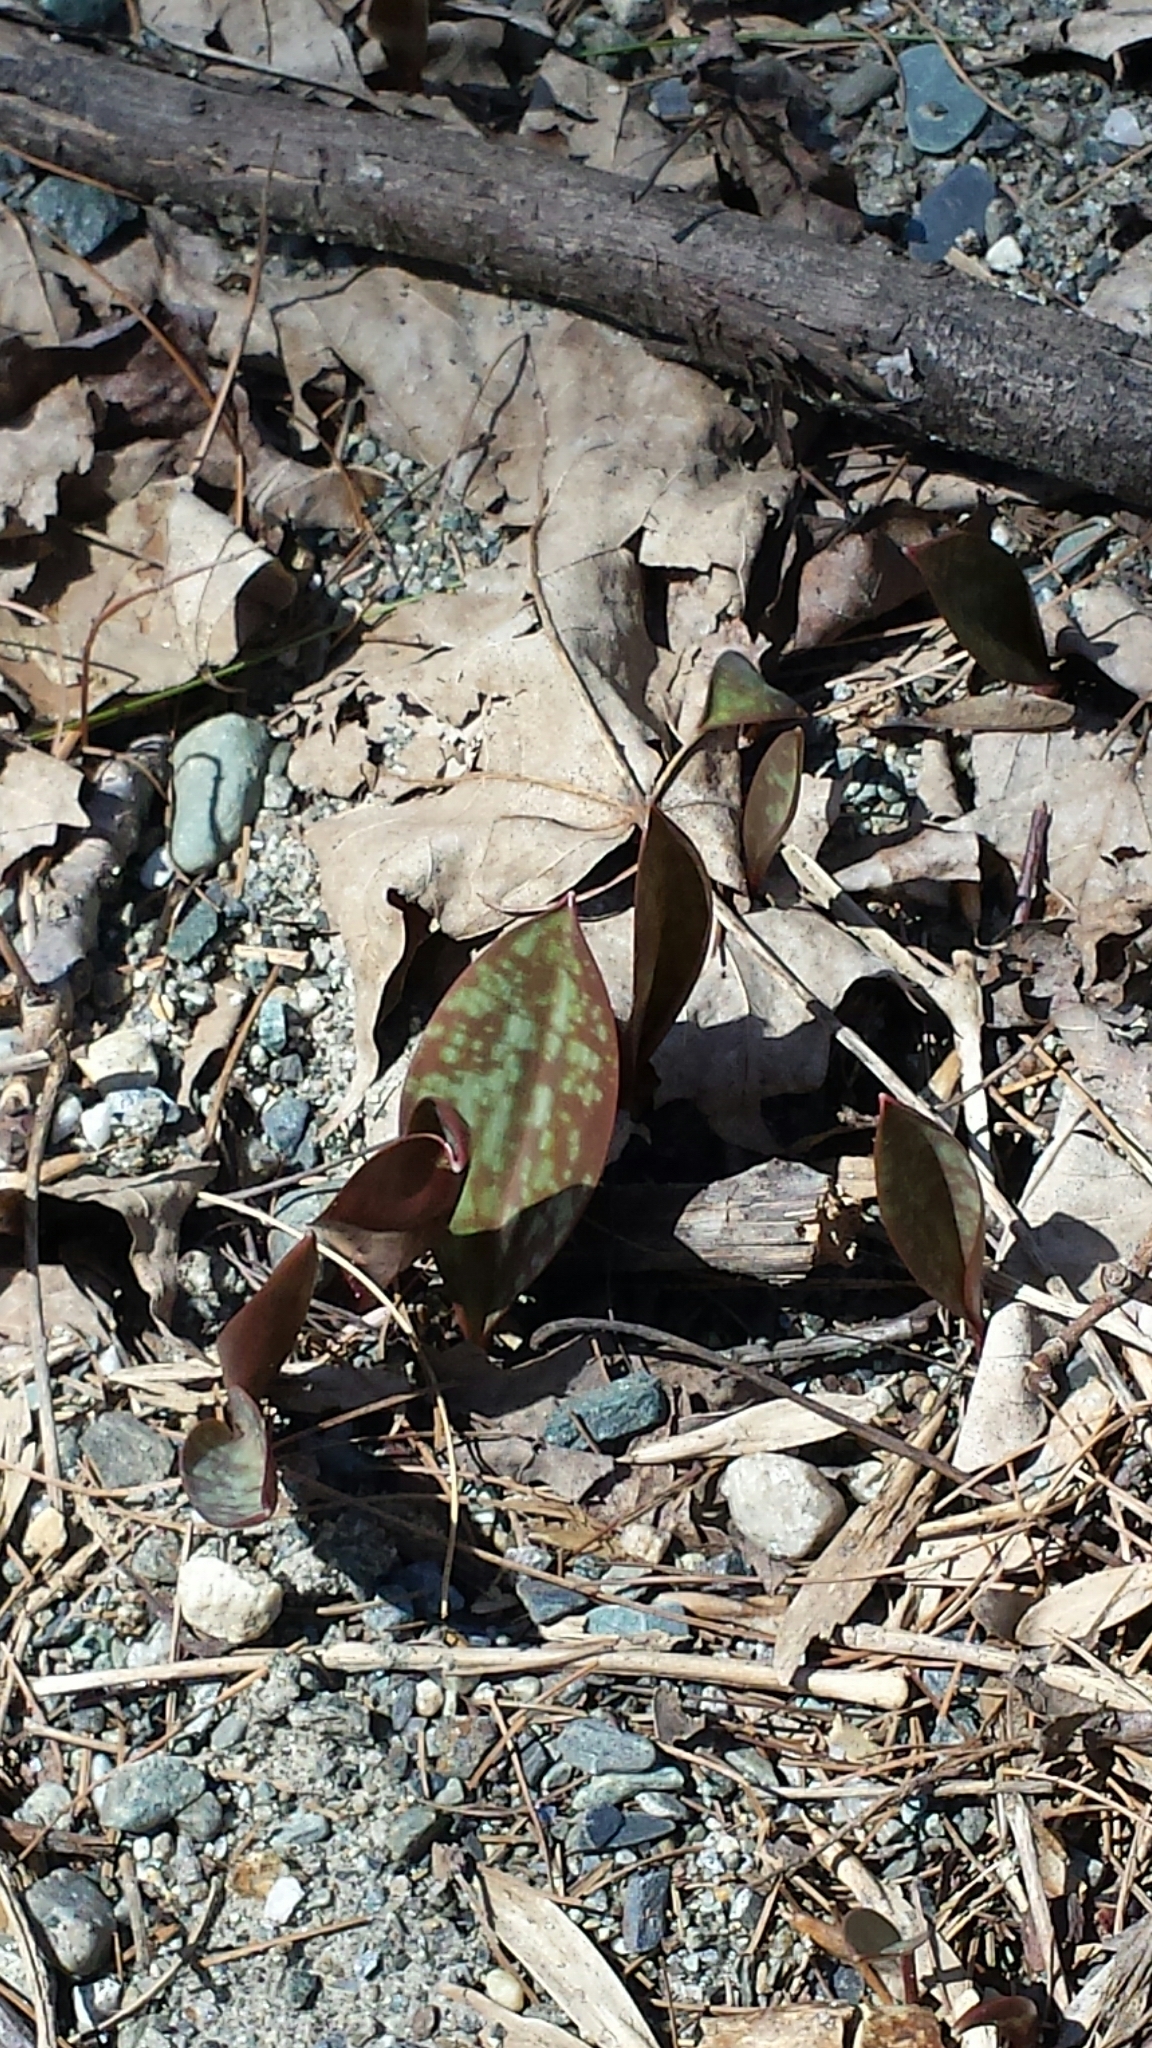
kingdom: Plantae
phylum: Tracheophyta
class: Liliopsida
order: Liliales
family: Liliaceae
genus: Erythronium
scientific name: Erythronium americanum
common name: Yellow adder's-tongue
